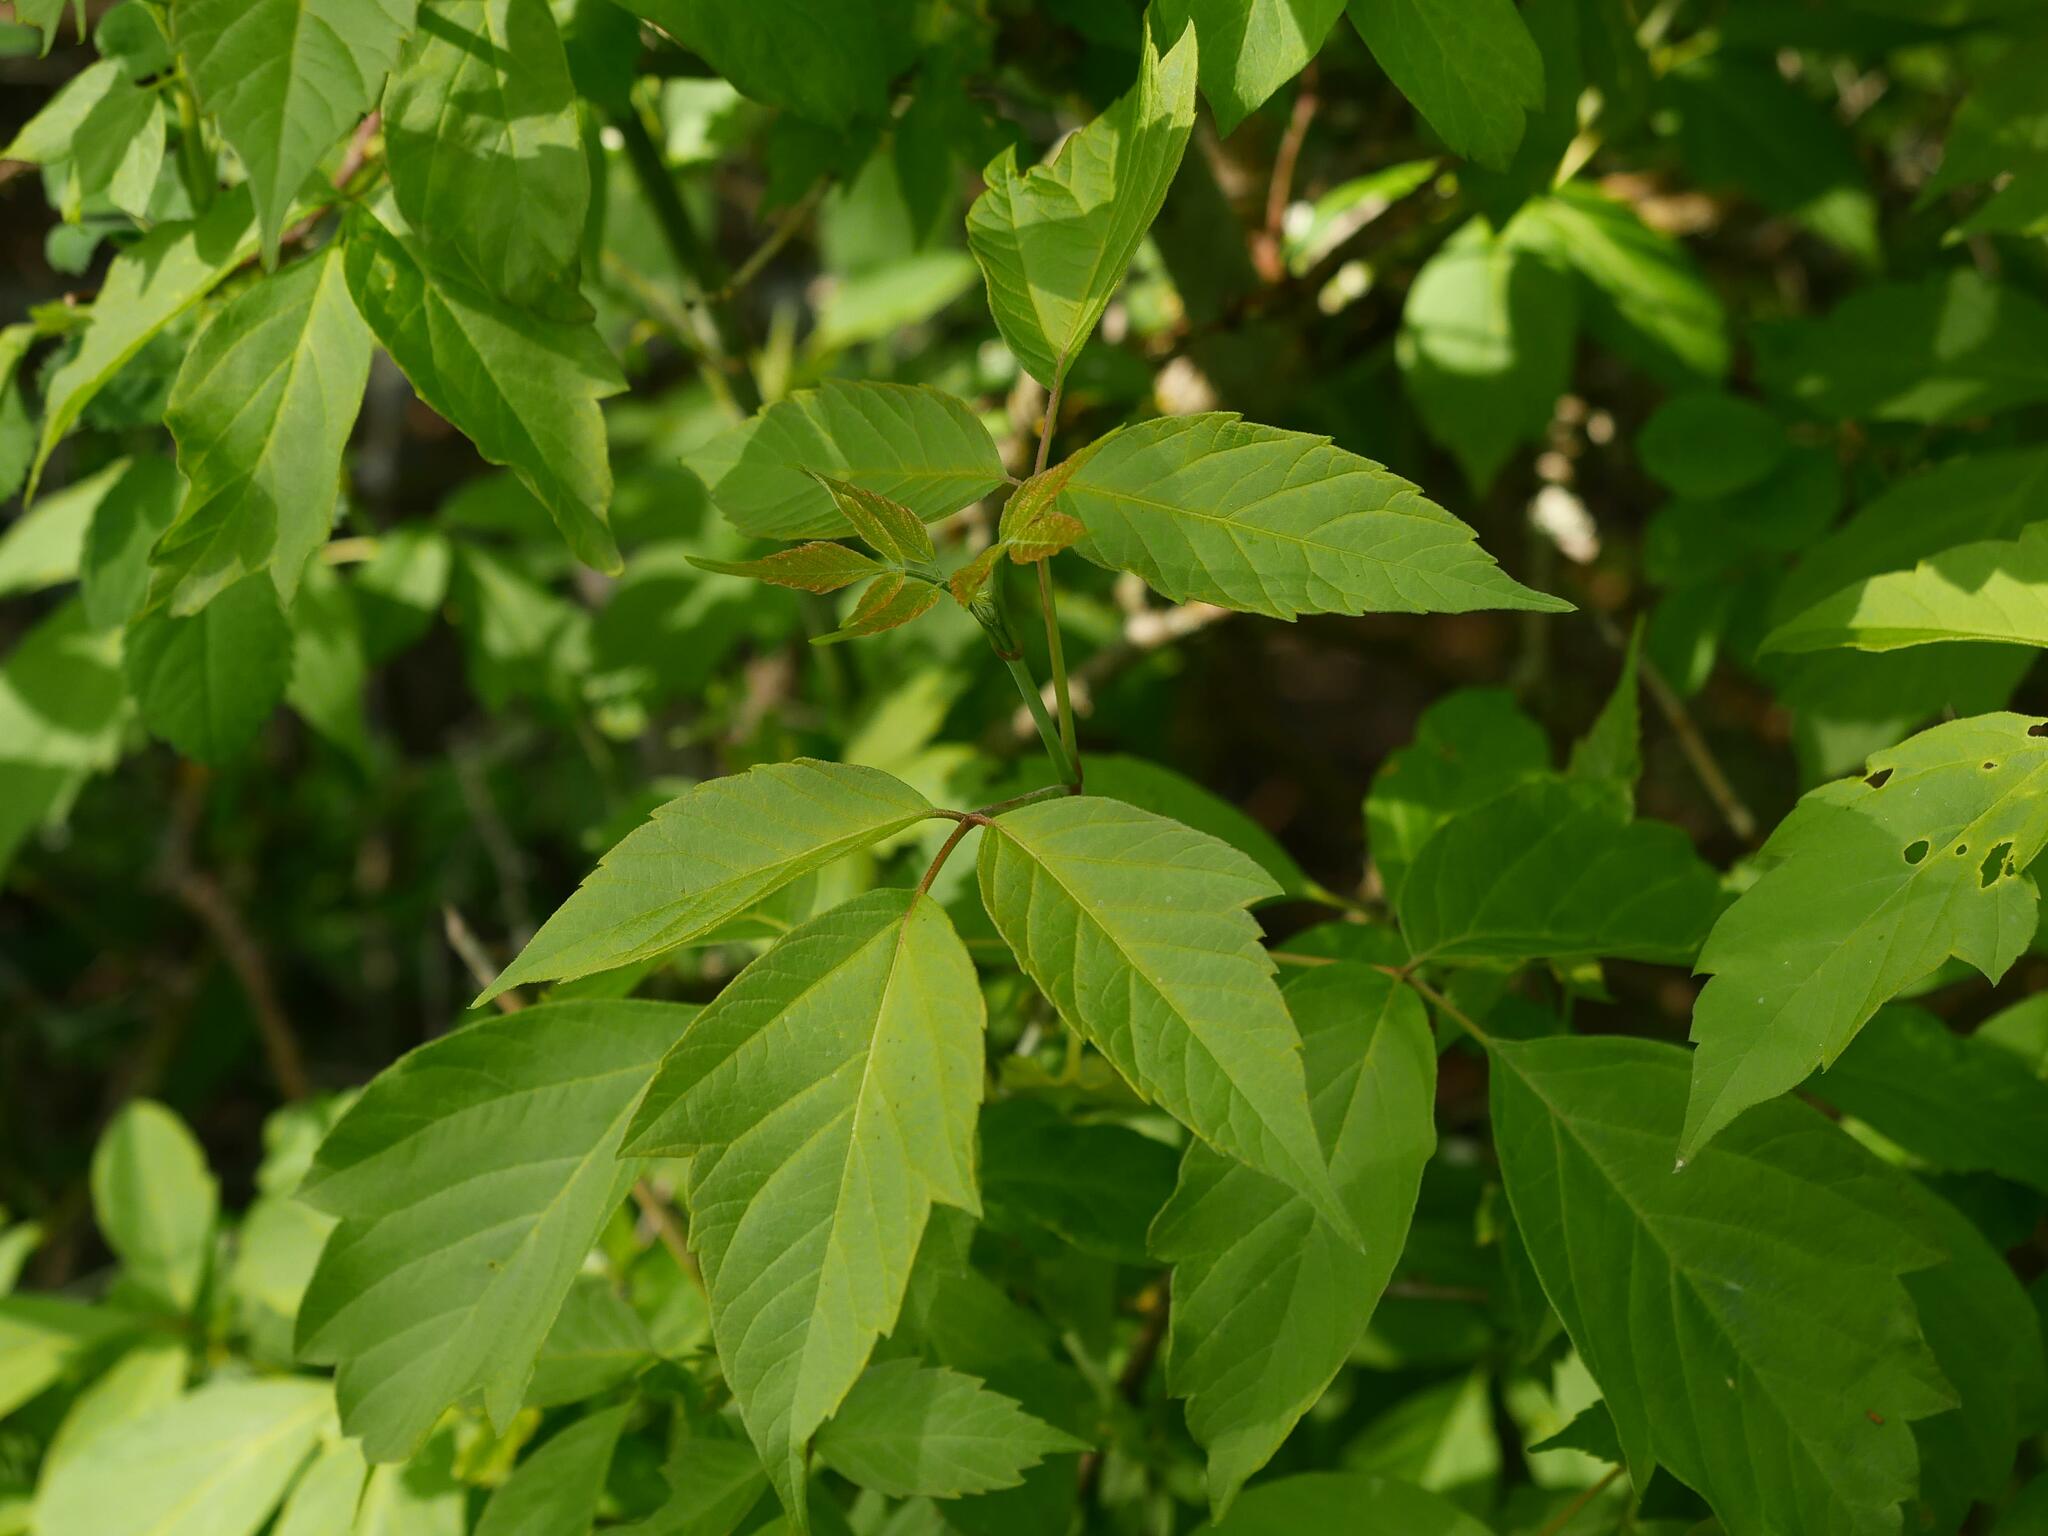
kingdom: Plantae
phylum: Tracheophyta
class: Magnoliopsida
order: Sapindales
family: Sapindaceae
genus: Acer
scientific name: Acer negundo
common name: Ashleaf maple
